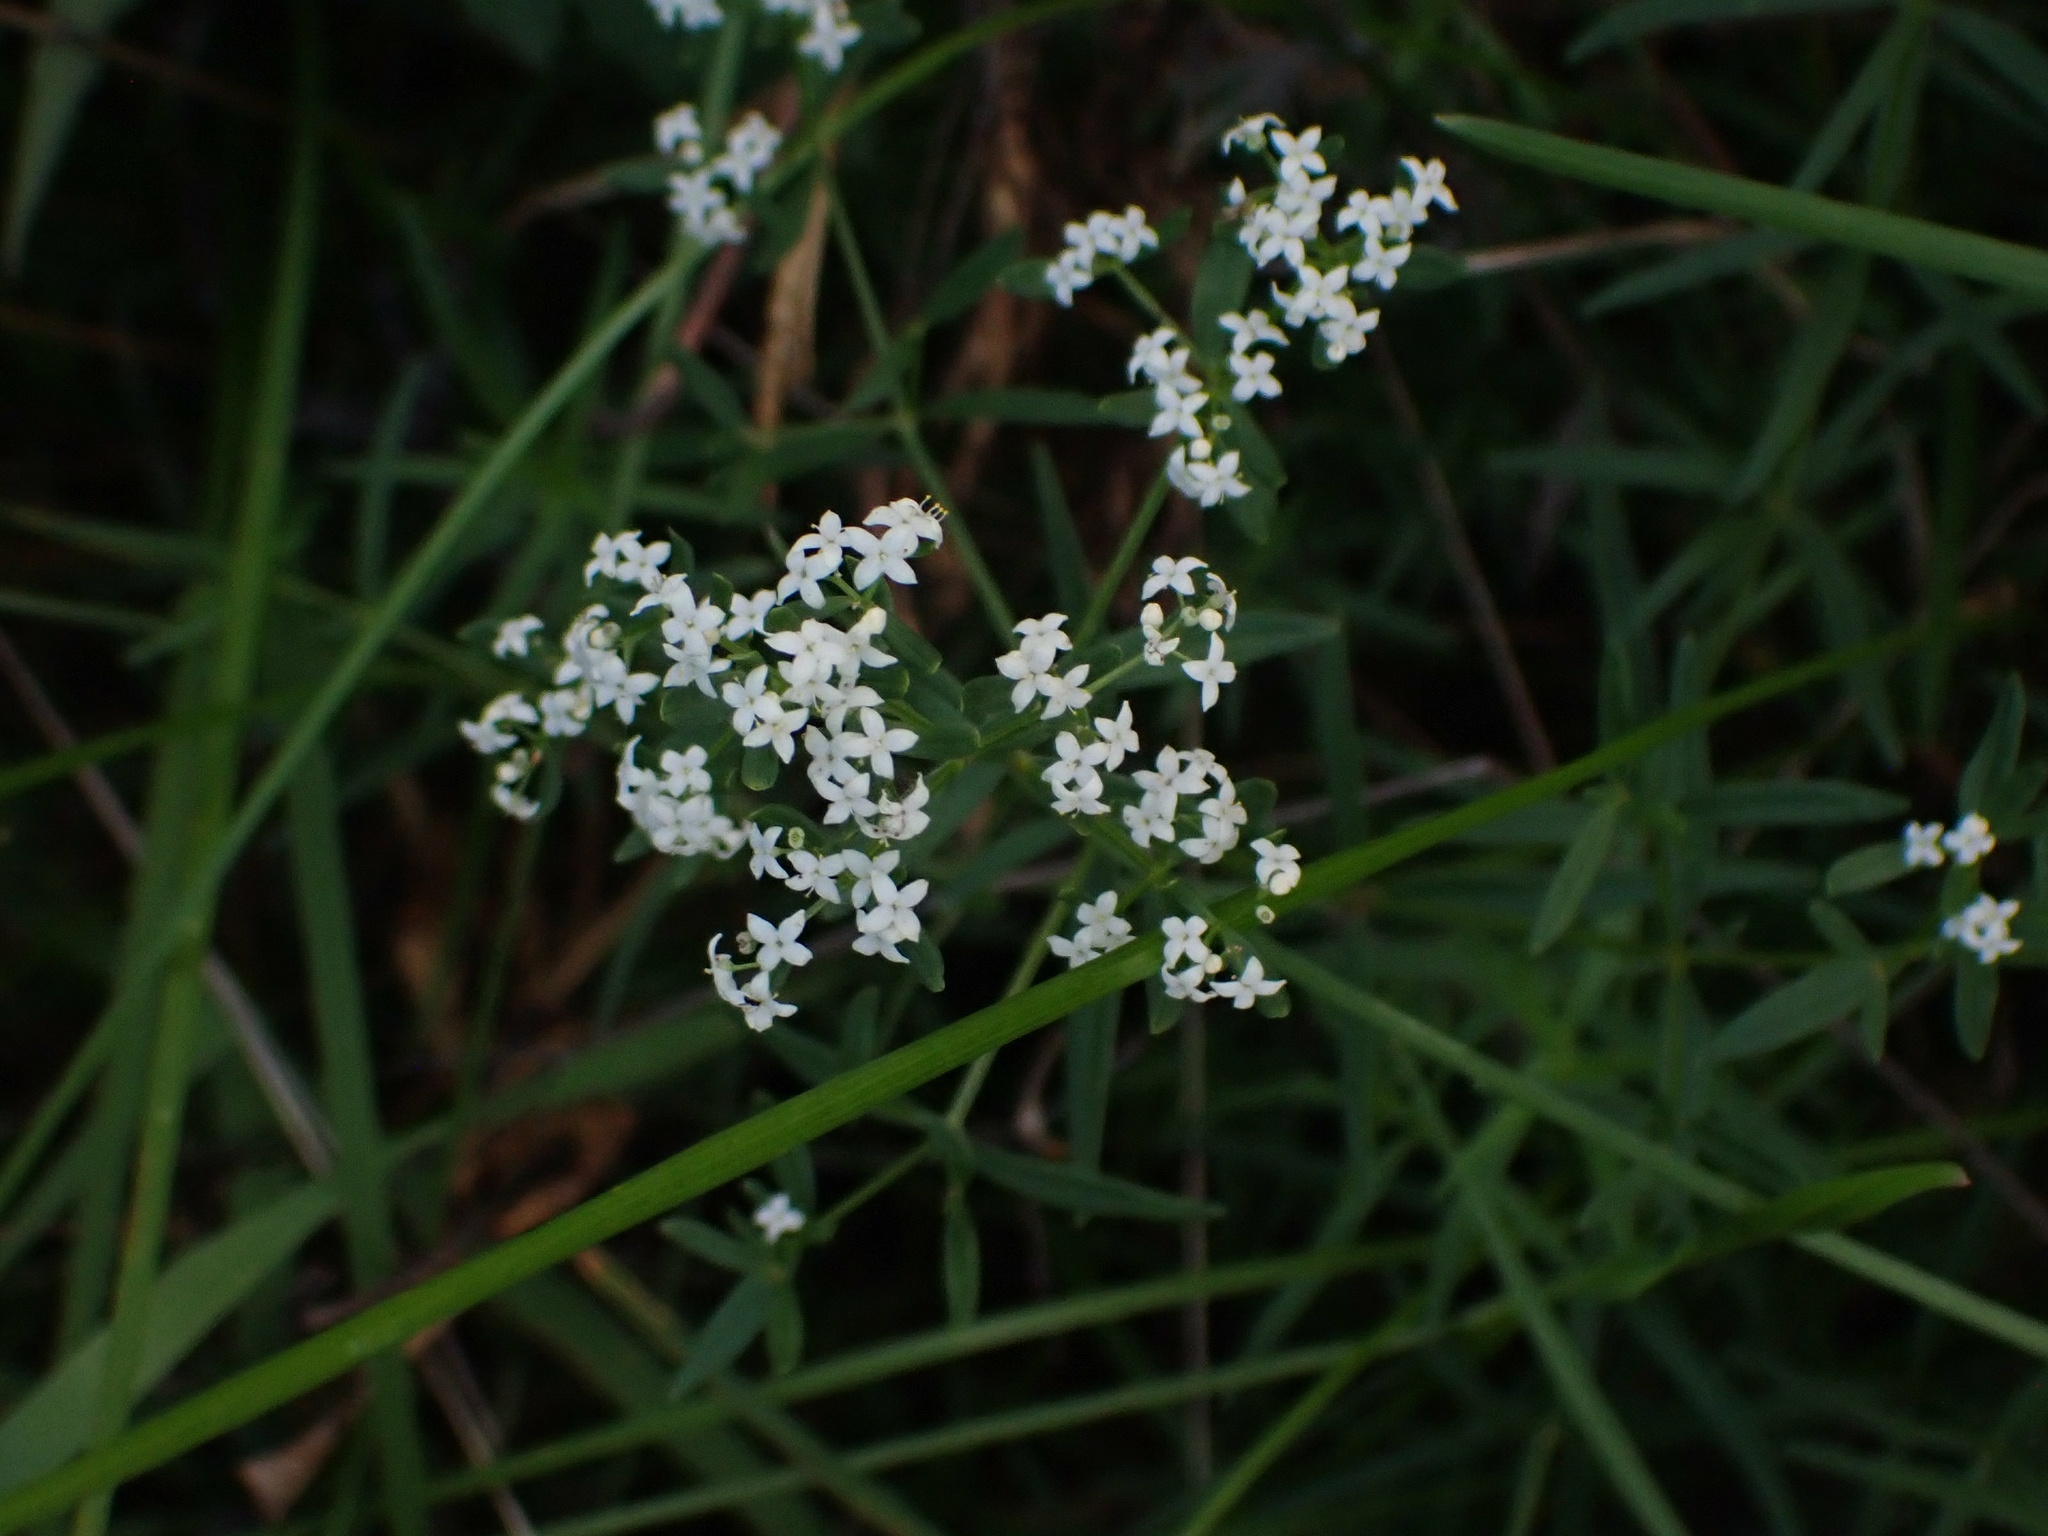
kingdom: Plantae
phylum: Tracheophyta
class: Magnoliopsida
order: Gentianales
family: Rubiaceae
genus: Galium
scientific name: Galium boreale
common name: Northern bedstraw
